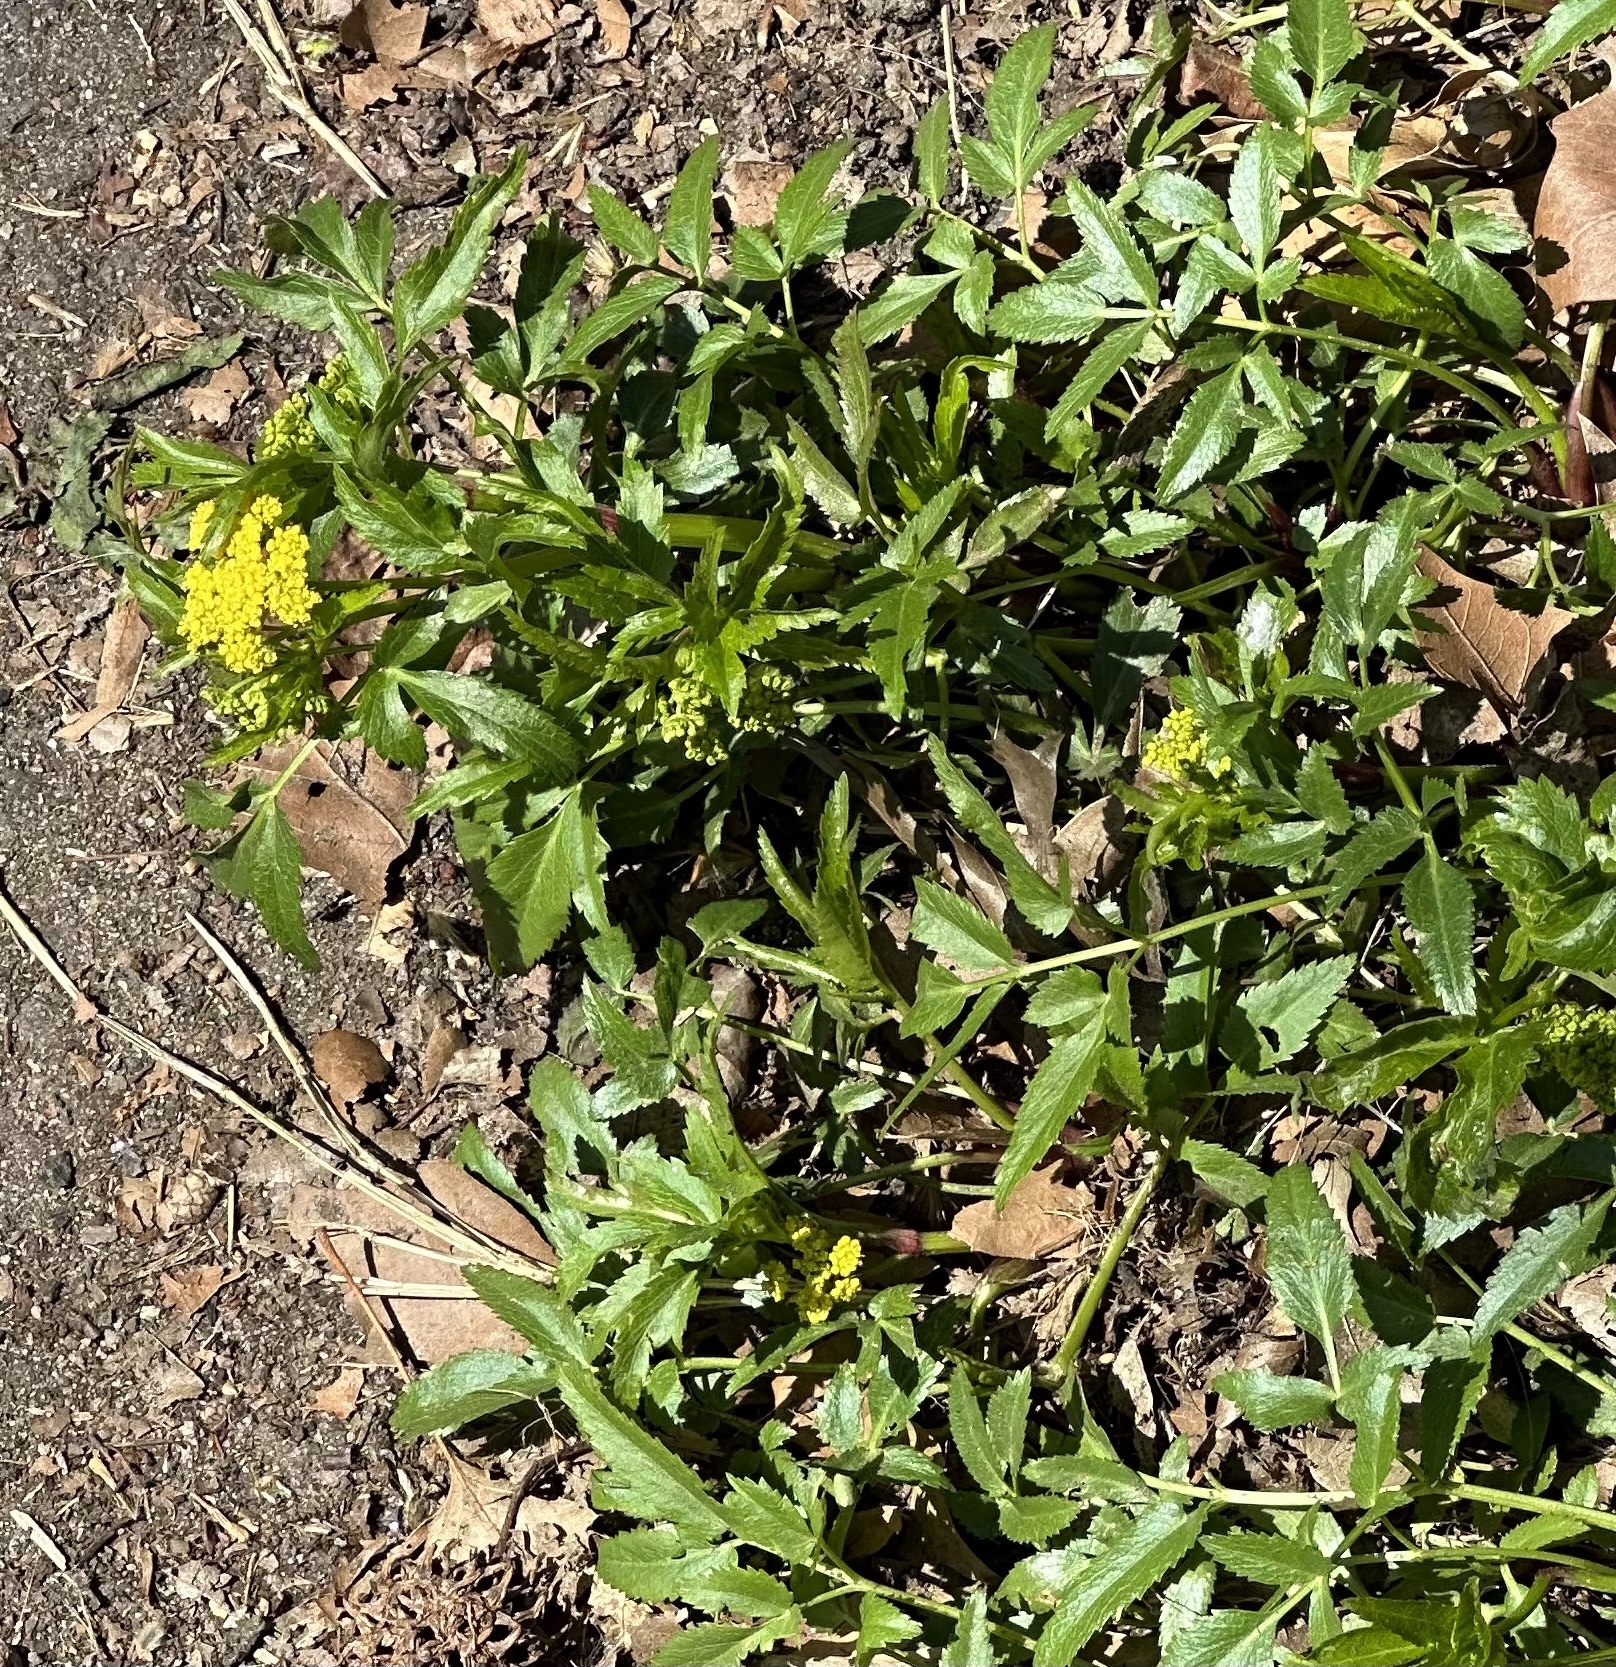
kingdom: Plantae
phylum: Tracheophyta
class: Magnoliopsida
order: Apiales
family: Apiaceae
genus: Zizia
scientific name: Zizia aurea
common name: Golden alexanders
